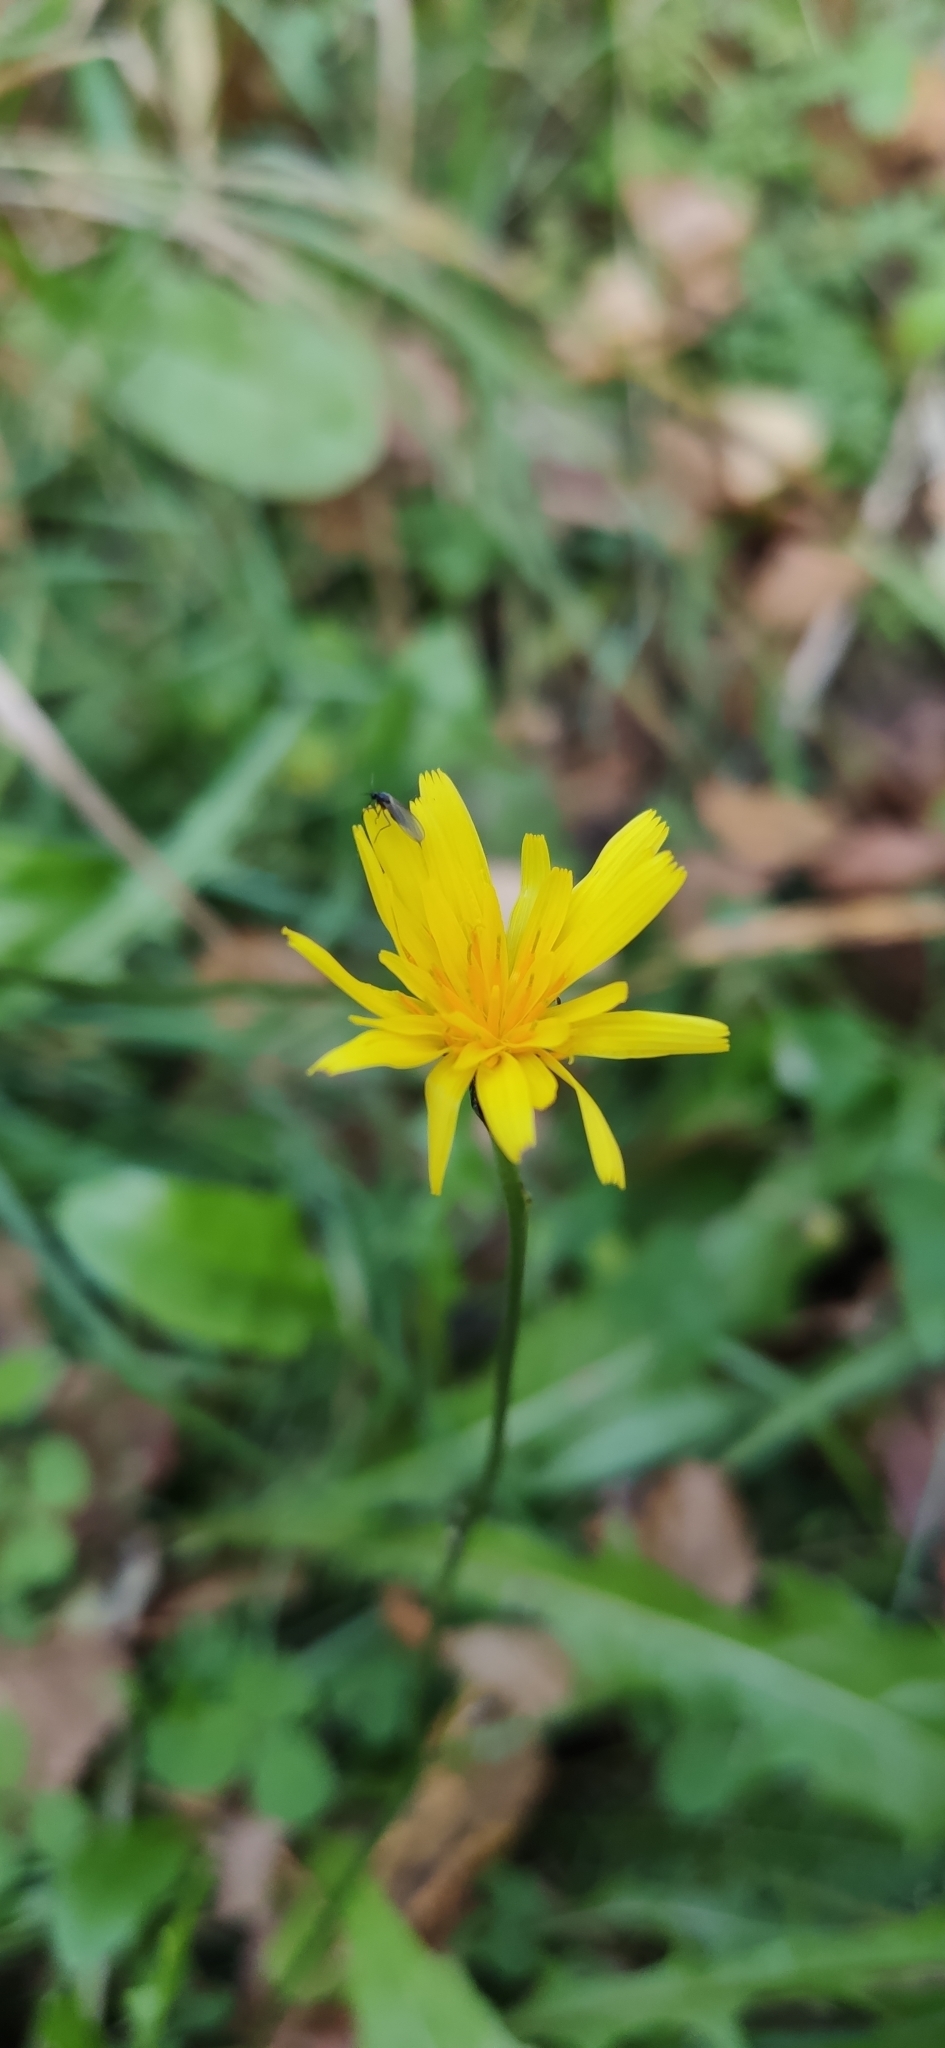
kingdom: Plantae
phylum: Tracheophyta
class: Magnoliopsida
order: Asterales
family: Asteraceae
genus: Scorzoneroides
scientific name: Scorzoneroides autumnalis
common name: Autumn hawkbit
